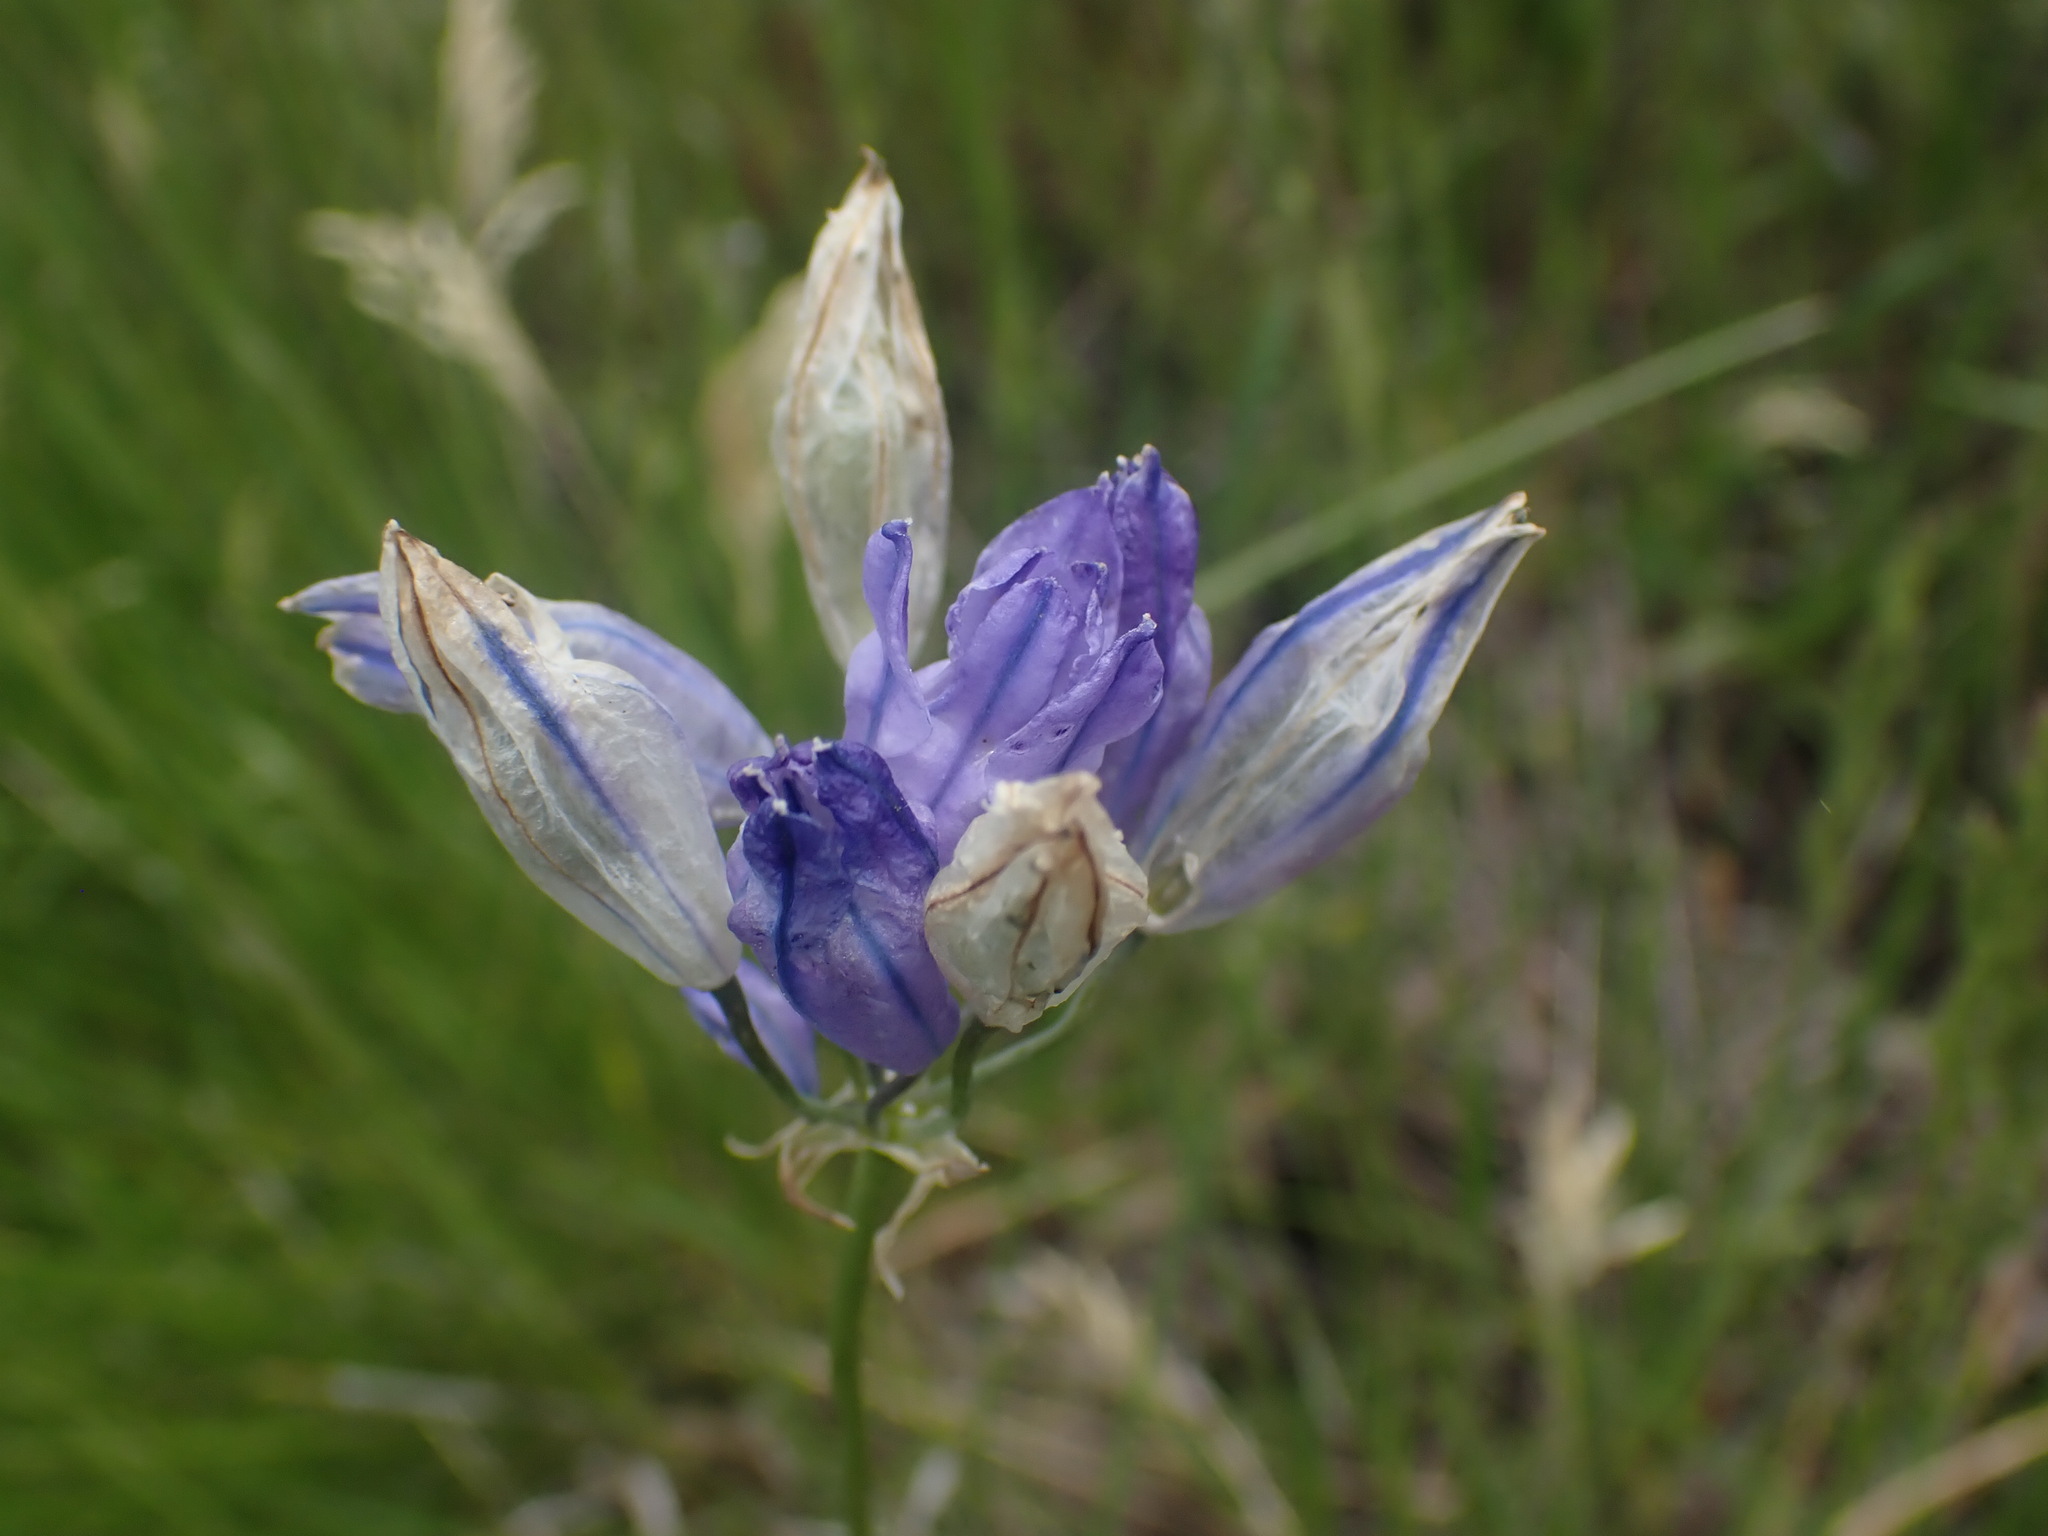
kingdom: Plantae
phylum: Tracheophyta
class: Liliopsida
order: Asparagales
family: Asparagaceae
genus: Triteleia
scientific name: Triteleia grandiflora
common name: Wild hyacinth
